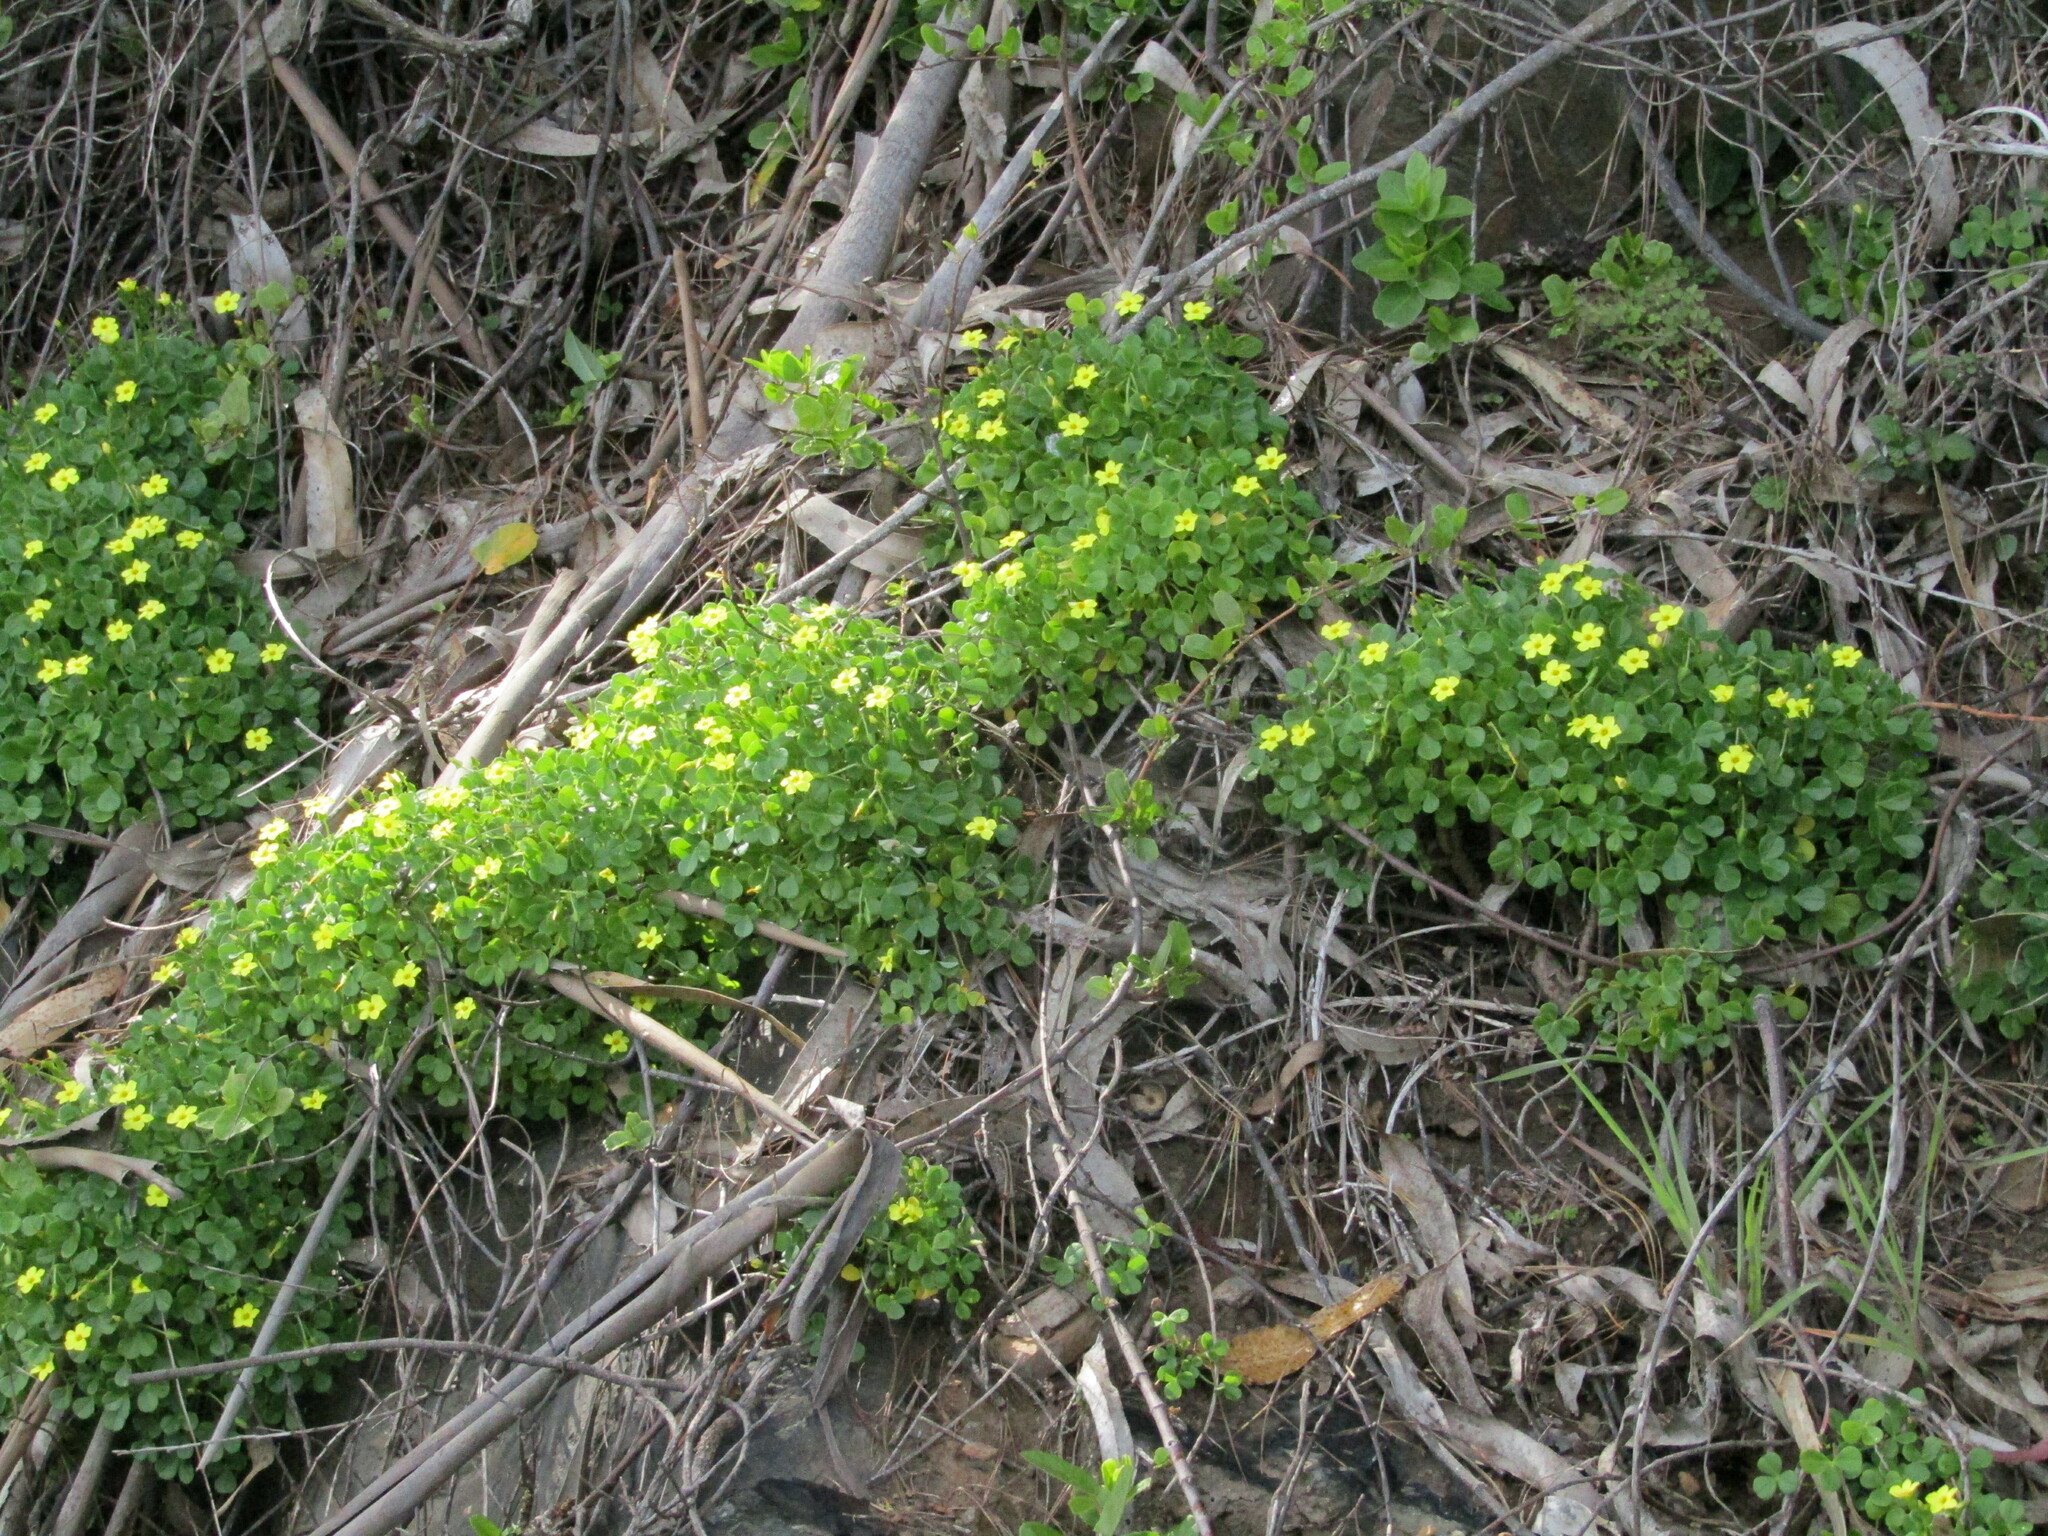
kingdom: Plantae
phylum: Tracheophyta
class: Magnoliopsida
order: Oxalidales
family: Oxalidaceae
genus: Oxalis
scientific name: Oxalis megalorrhiza
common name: Fleshy yellow-sorrel
